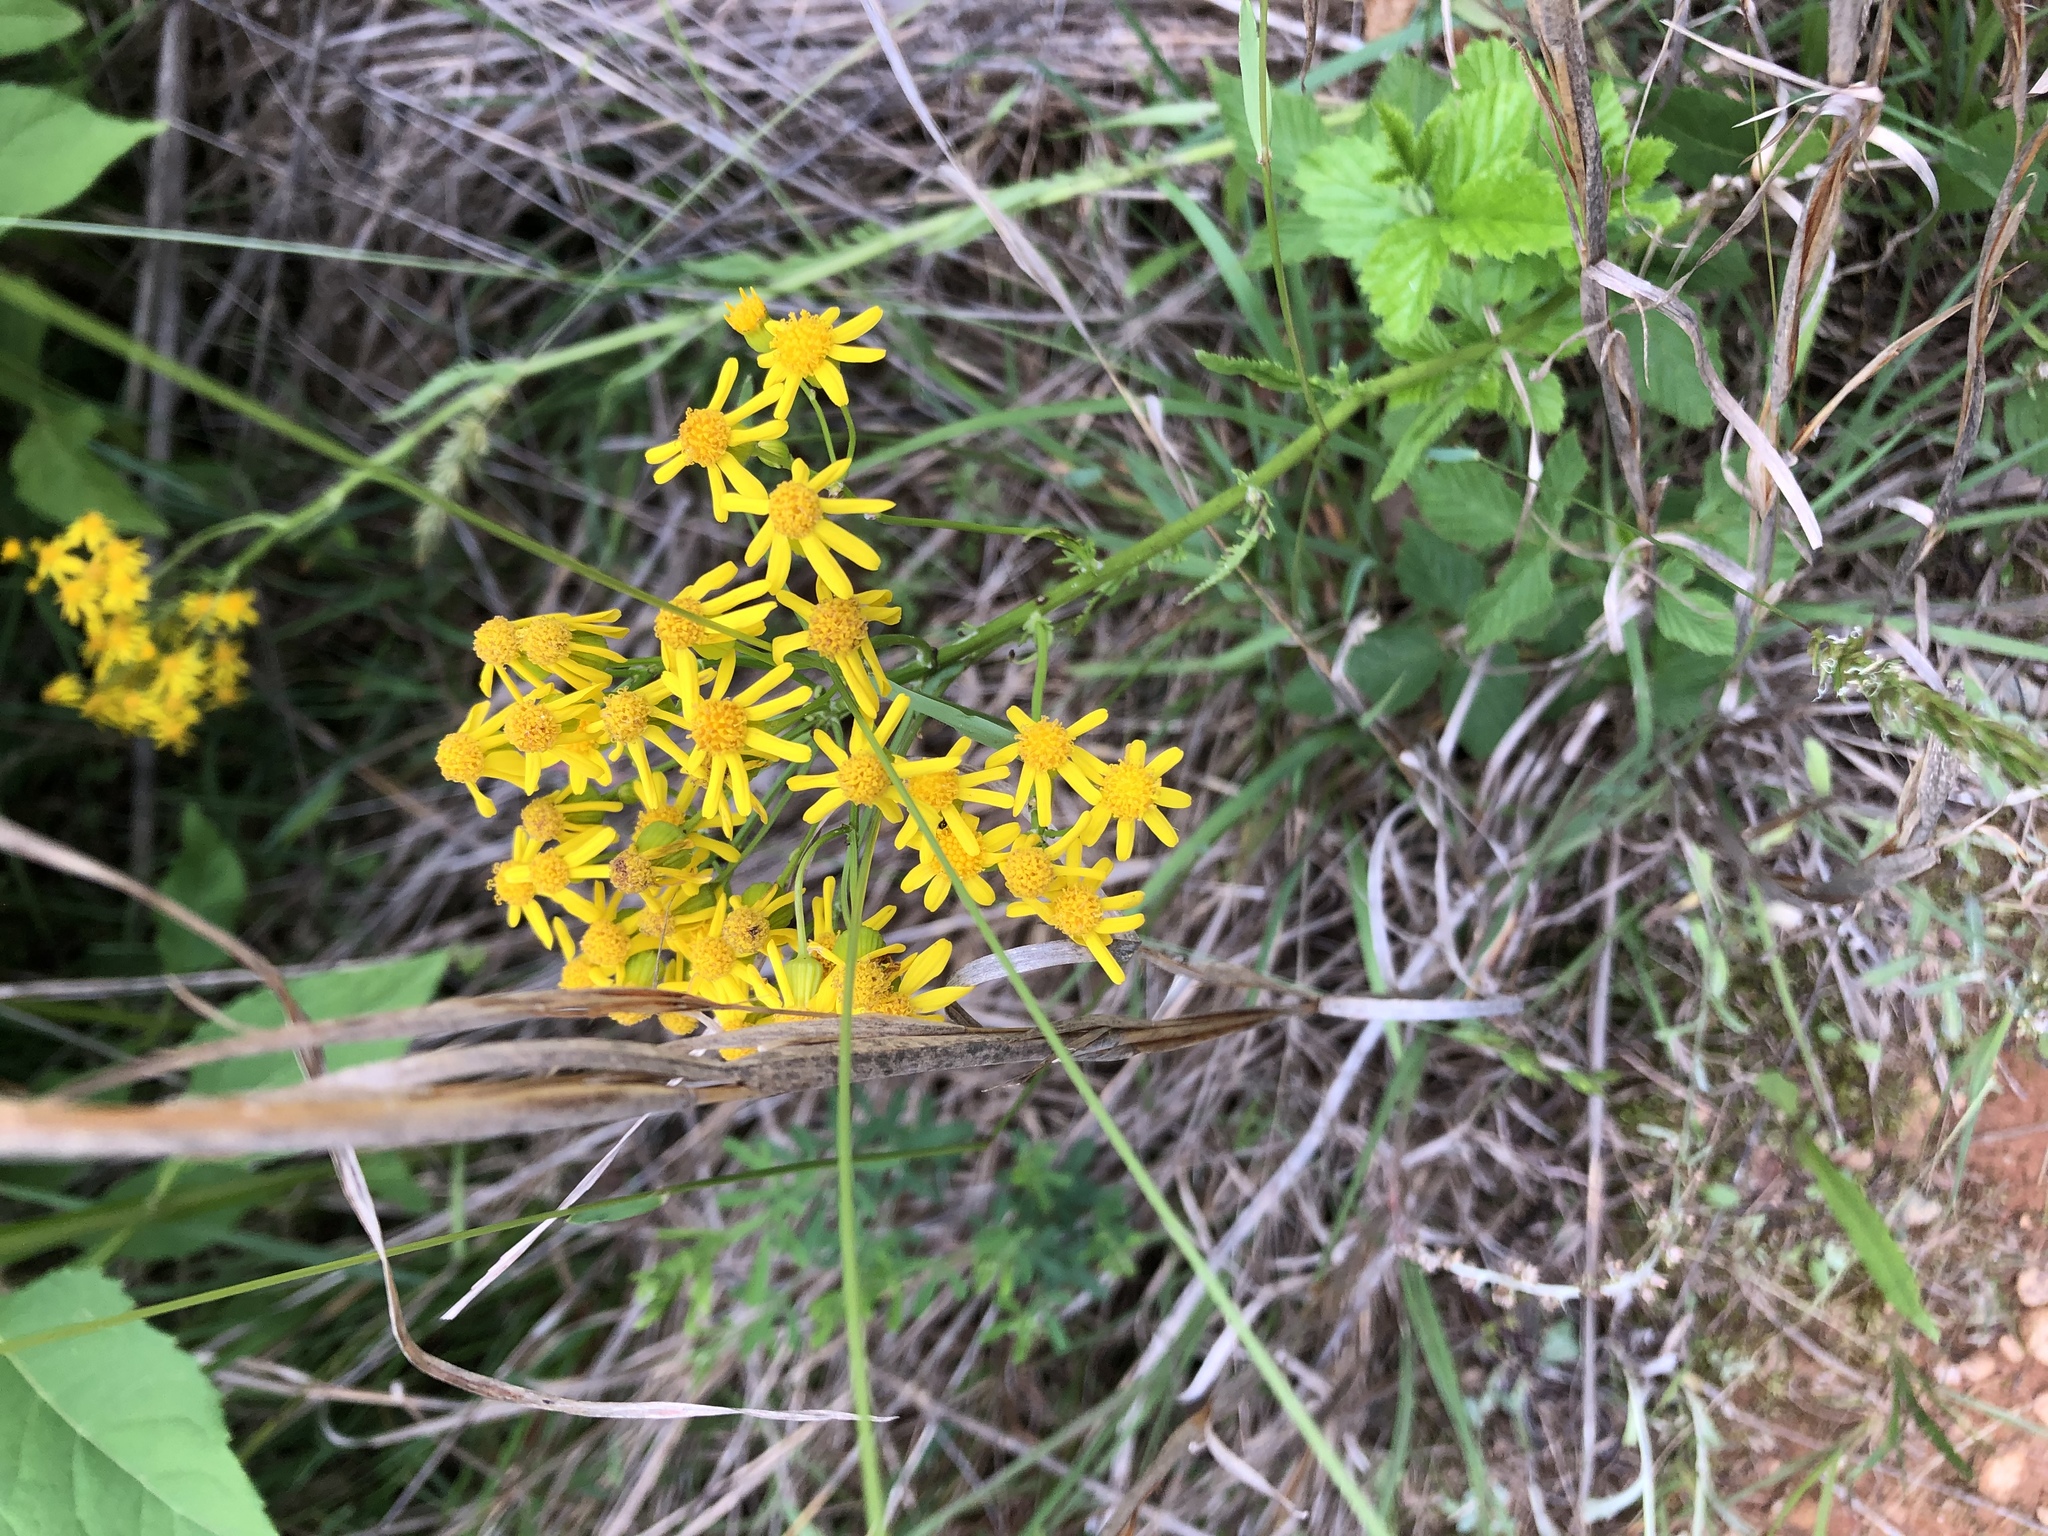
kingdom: Plantae
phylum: Tracheophyta
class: Magnoliopsida
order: Asterales
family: Asteraceae
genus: Packera
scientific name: Packera anonyma
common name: Small ragwort
